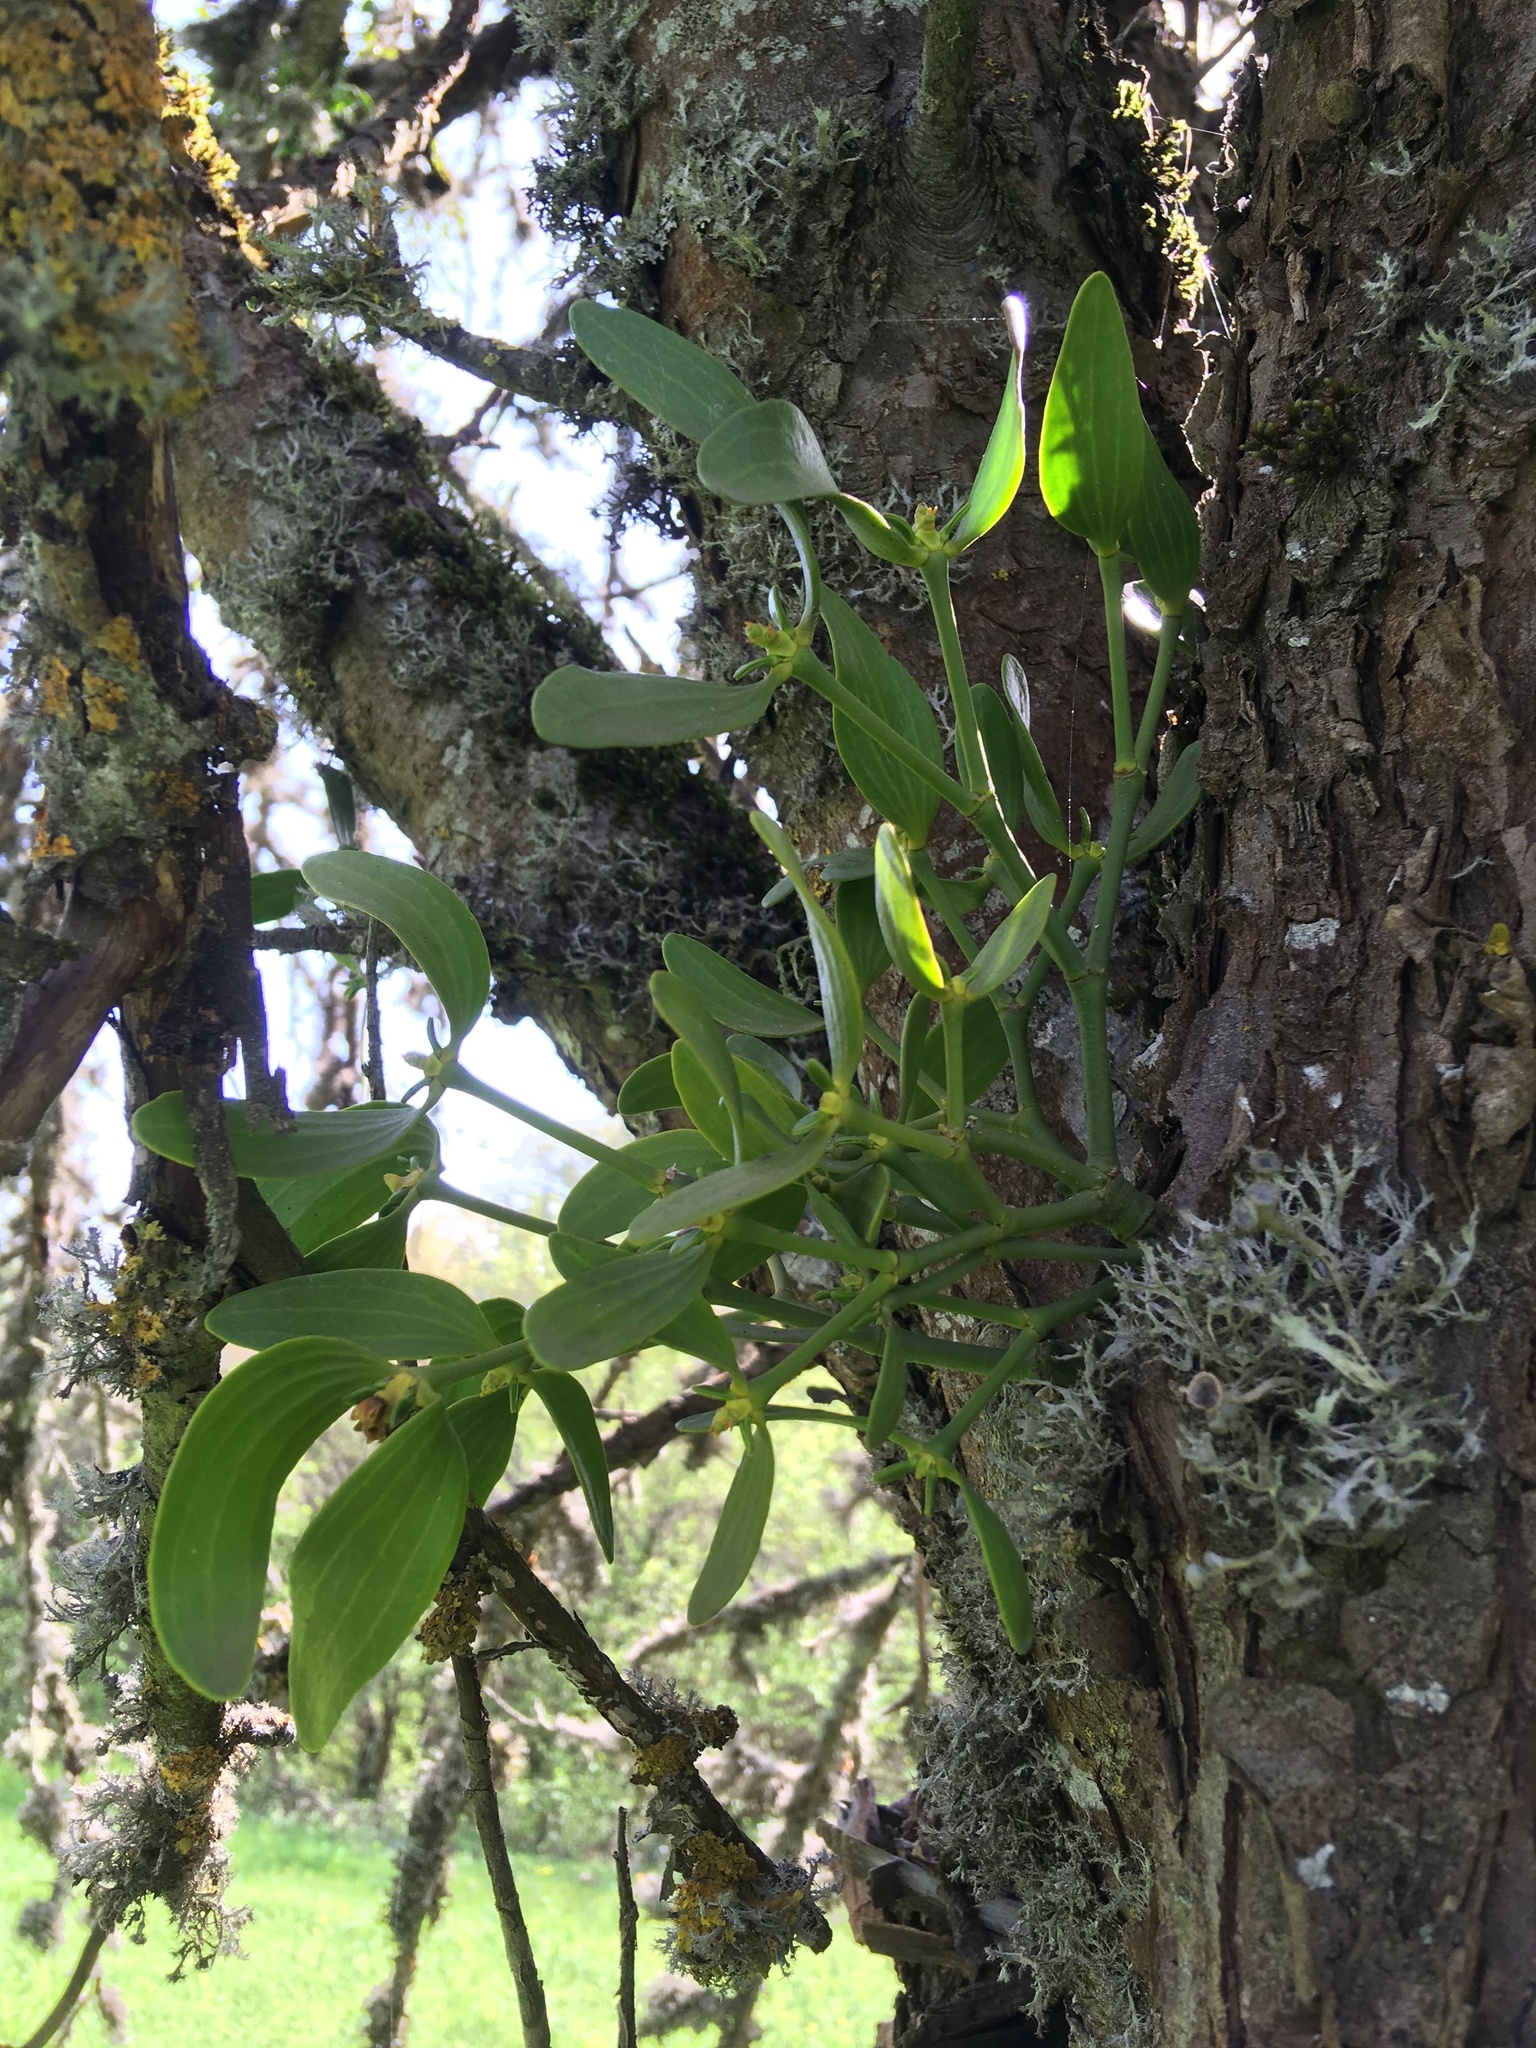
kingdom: Plantae
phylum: Tracheophyta
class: Magnoliopsida
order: Santalales
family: Viscaceae
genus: Viscum
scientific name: Viscum album
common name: Mistletoe
